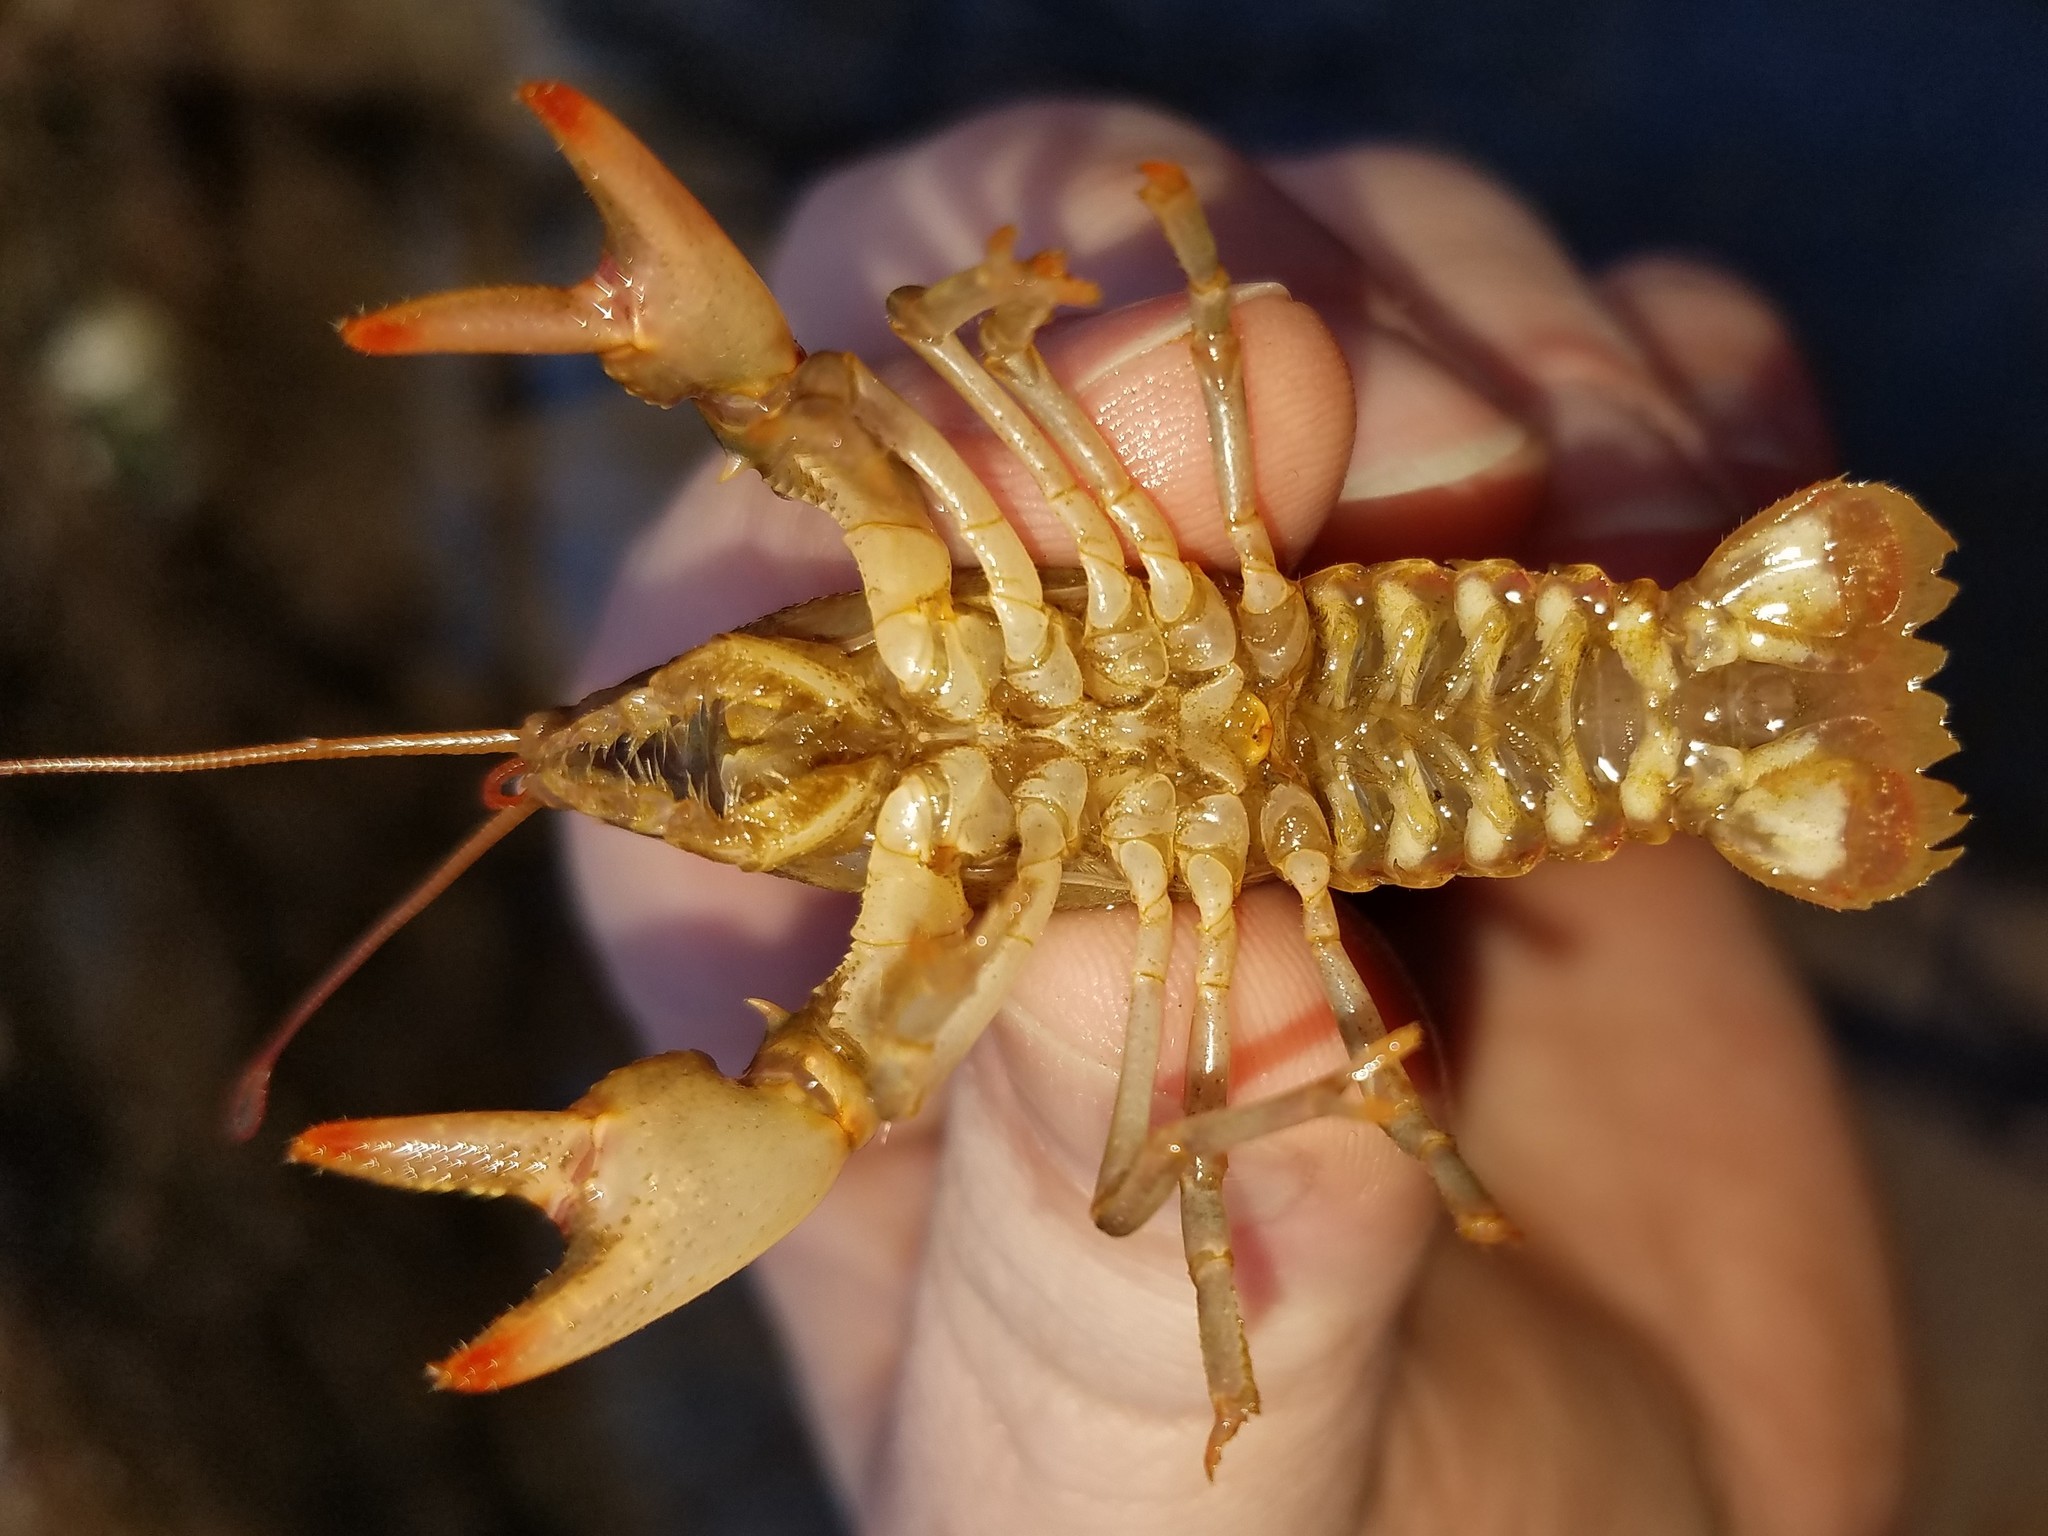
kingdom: Animalia
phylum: Arthropoda
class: Malacostraca
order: Decapoda
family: Cambaridae
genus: Cambarus
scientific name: Cambarus latimanus
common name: Variable crayfish
